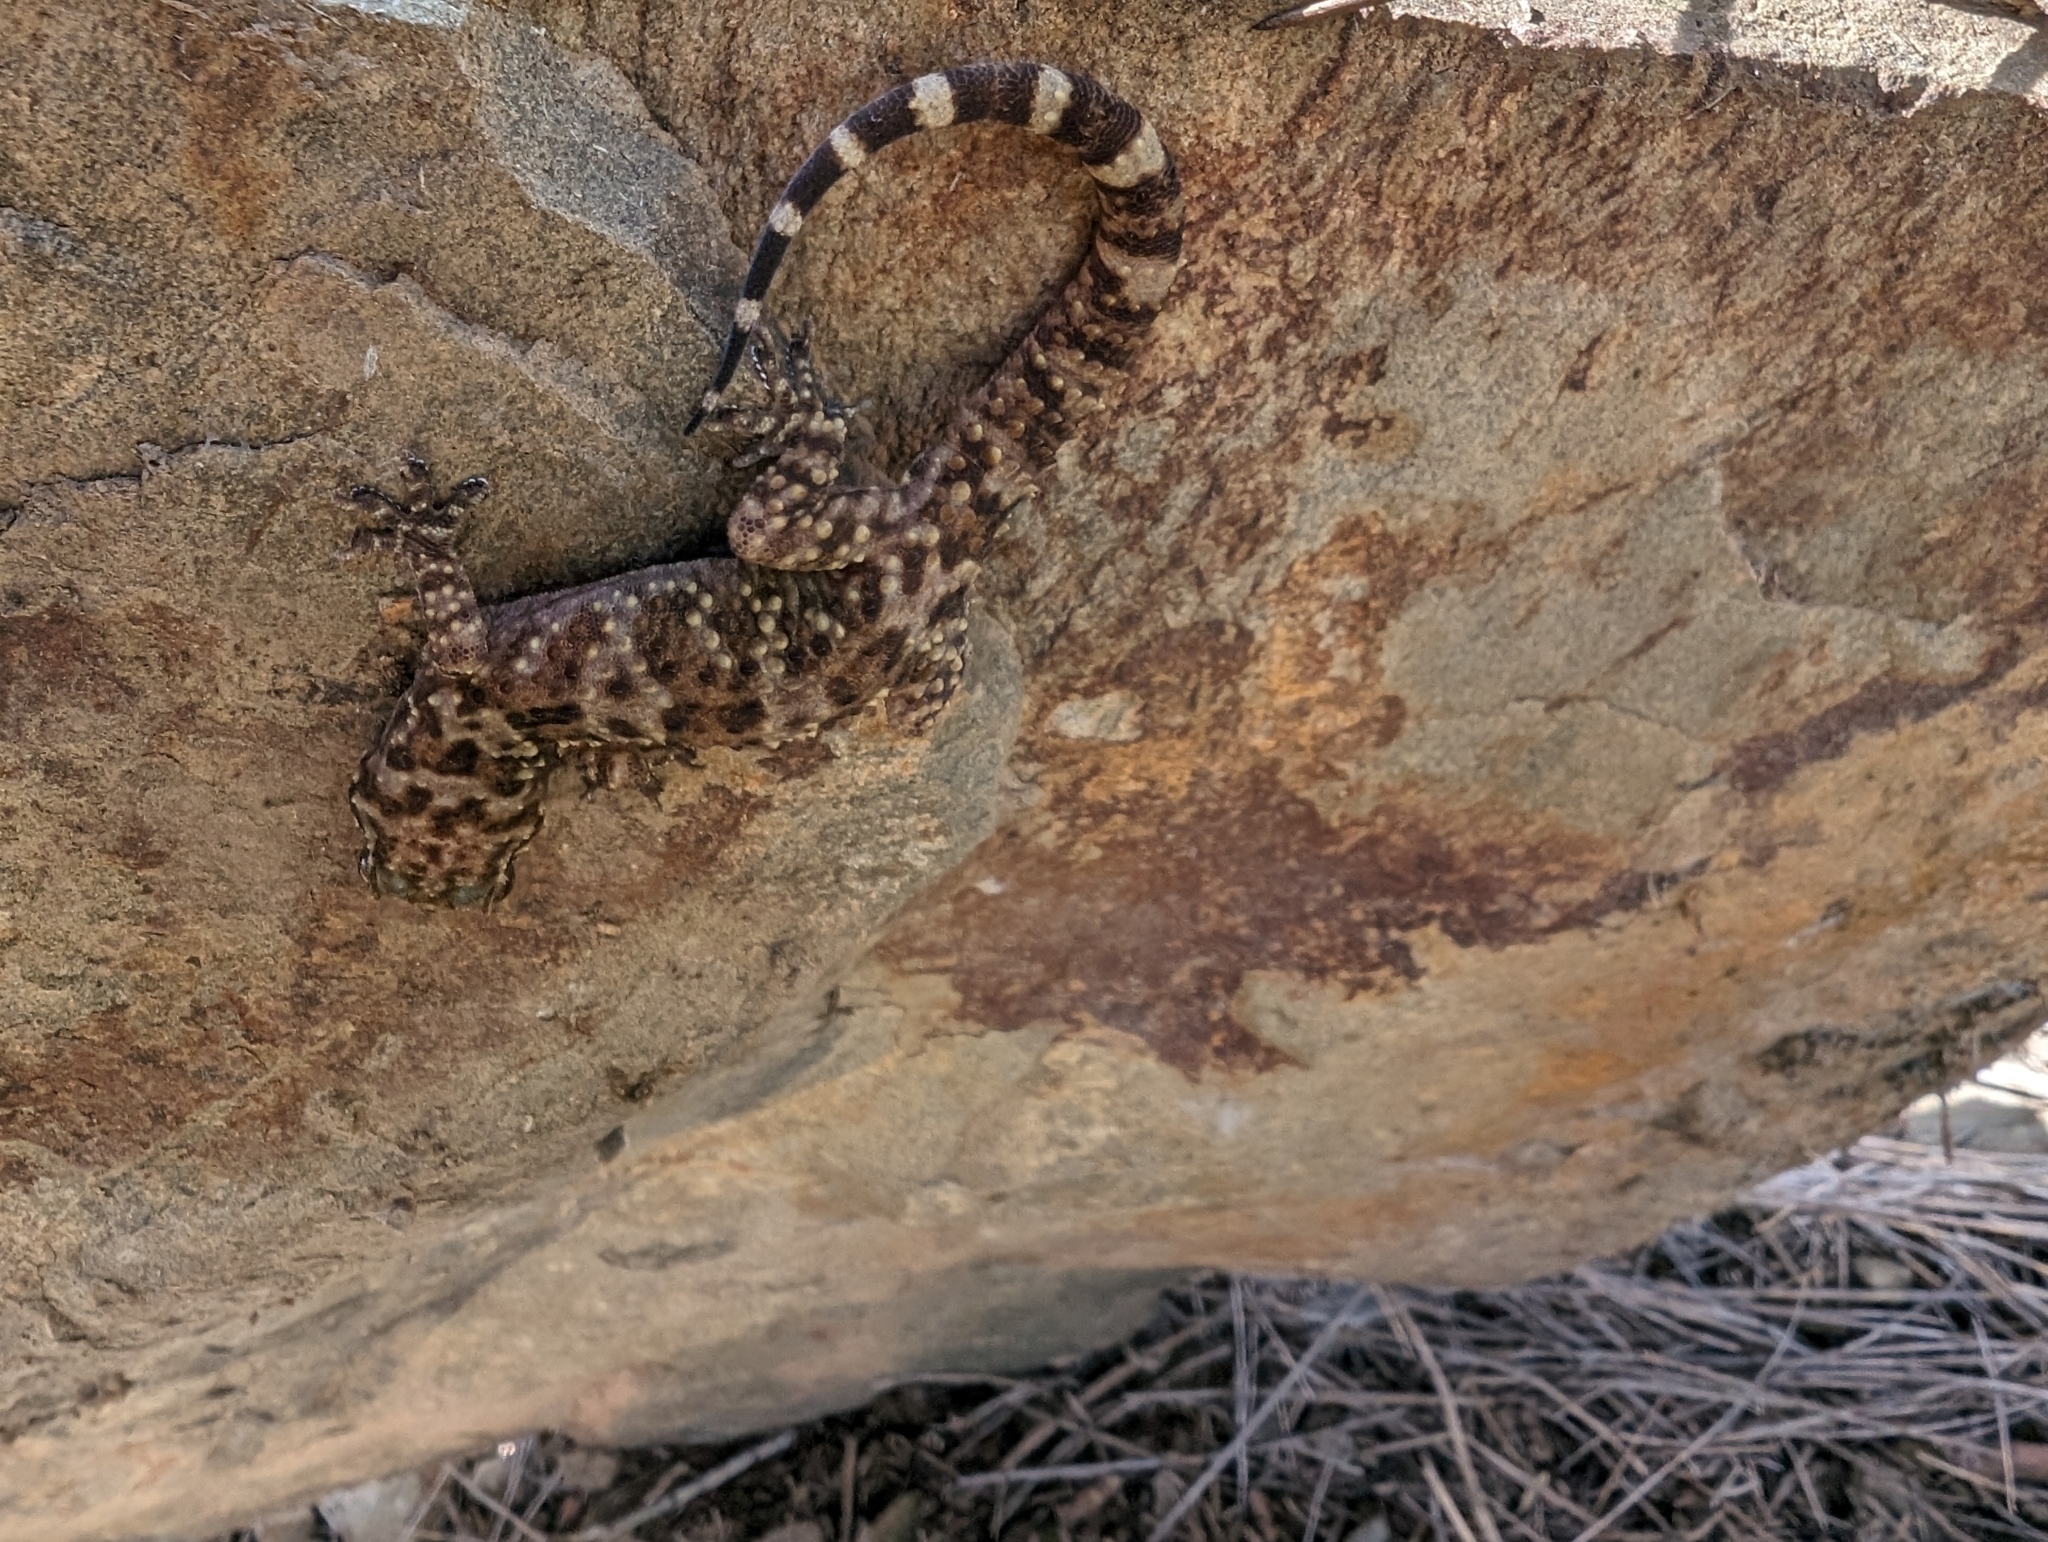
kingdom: Animalia
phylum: Chordata
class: Squamata
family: Gekkonidae
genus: Hemidactylus
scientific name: Hemidactylus turcicus
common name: Turkish gecko
